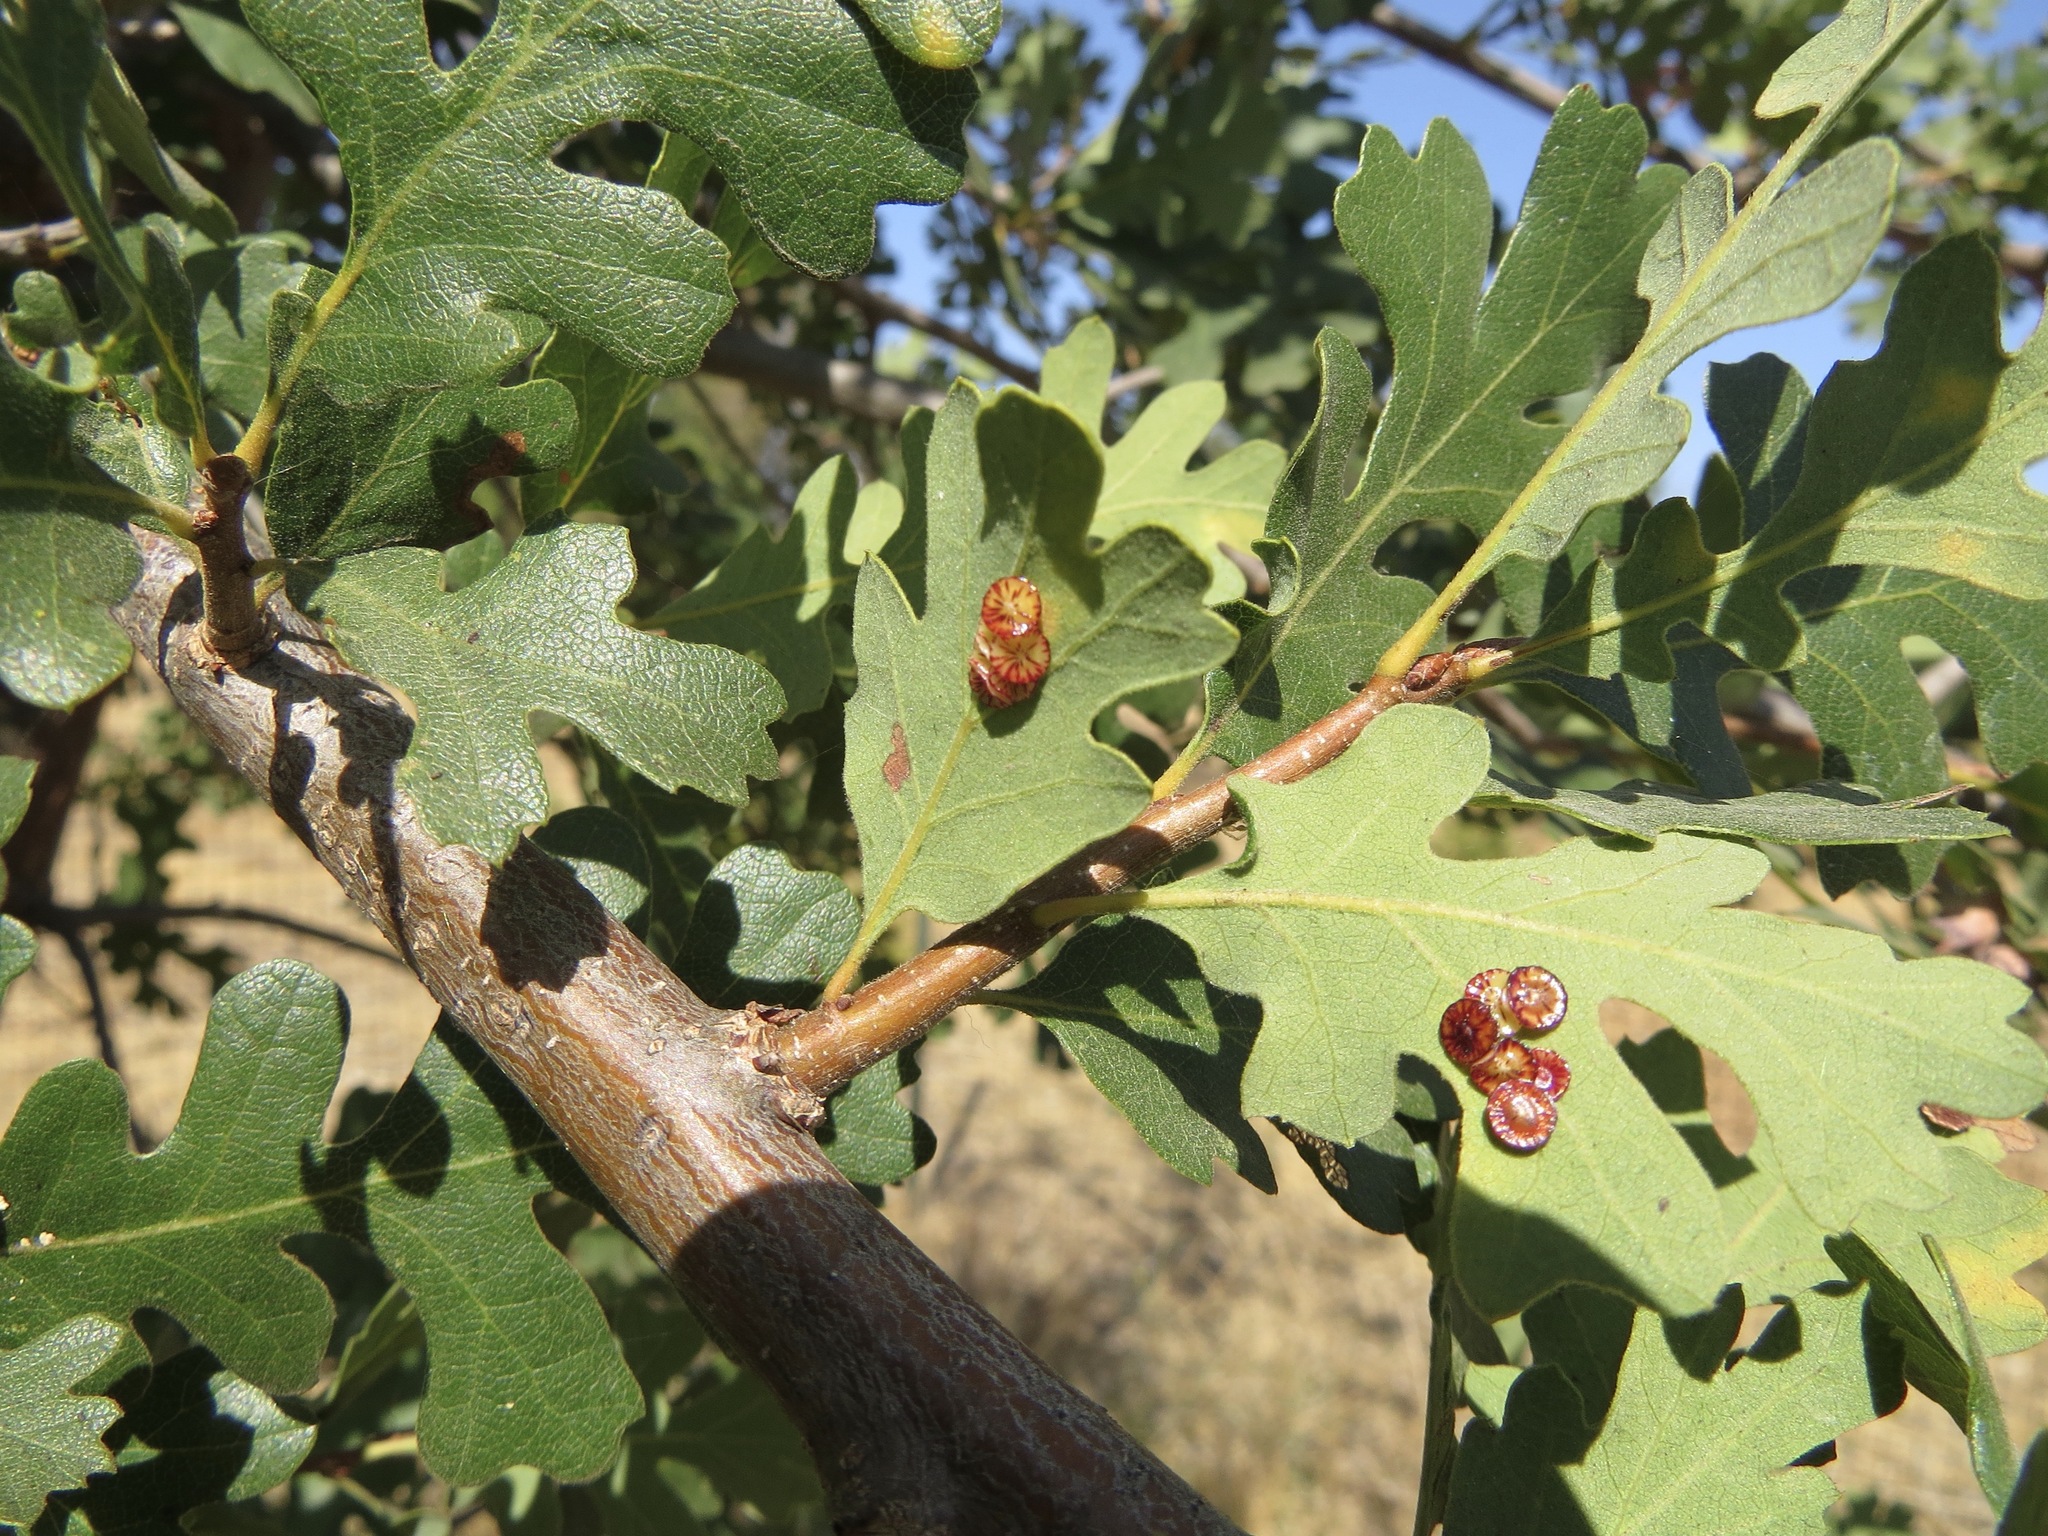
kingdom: Animalia
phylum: Arthropoda
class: Insecta
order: Hymenoptera
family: Cynipidae
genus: Andricus
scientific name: Andricus
